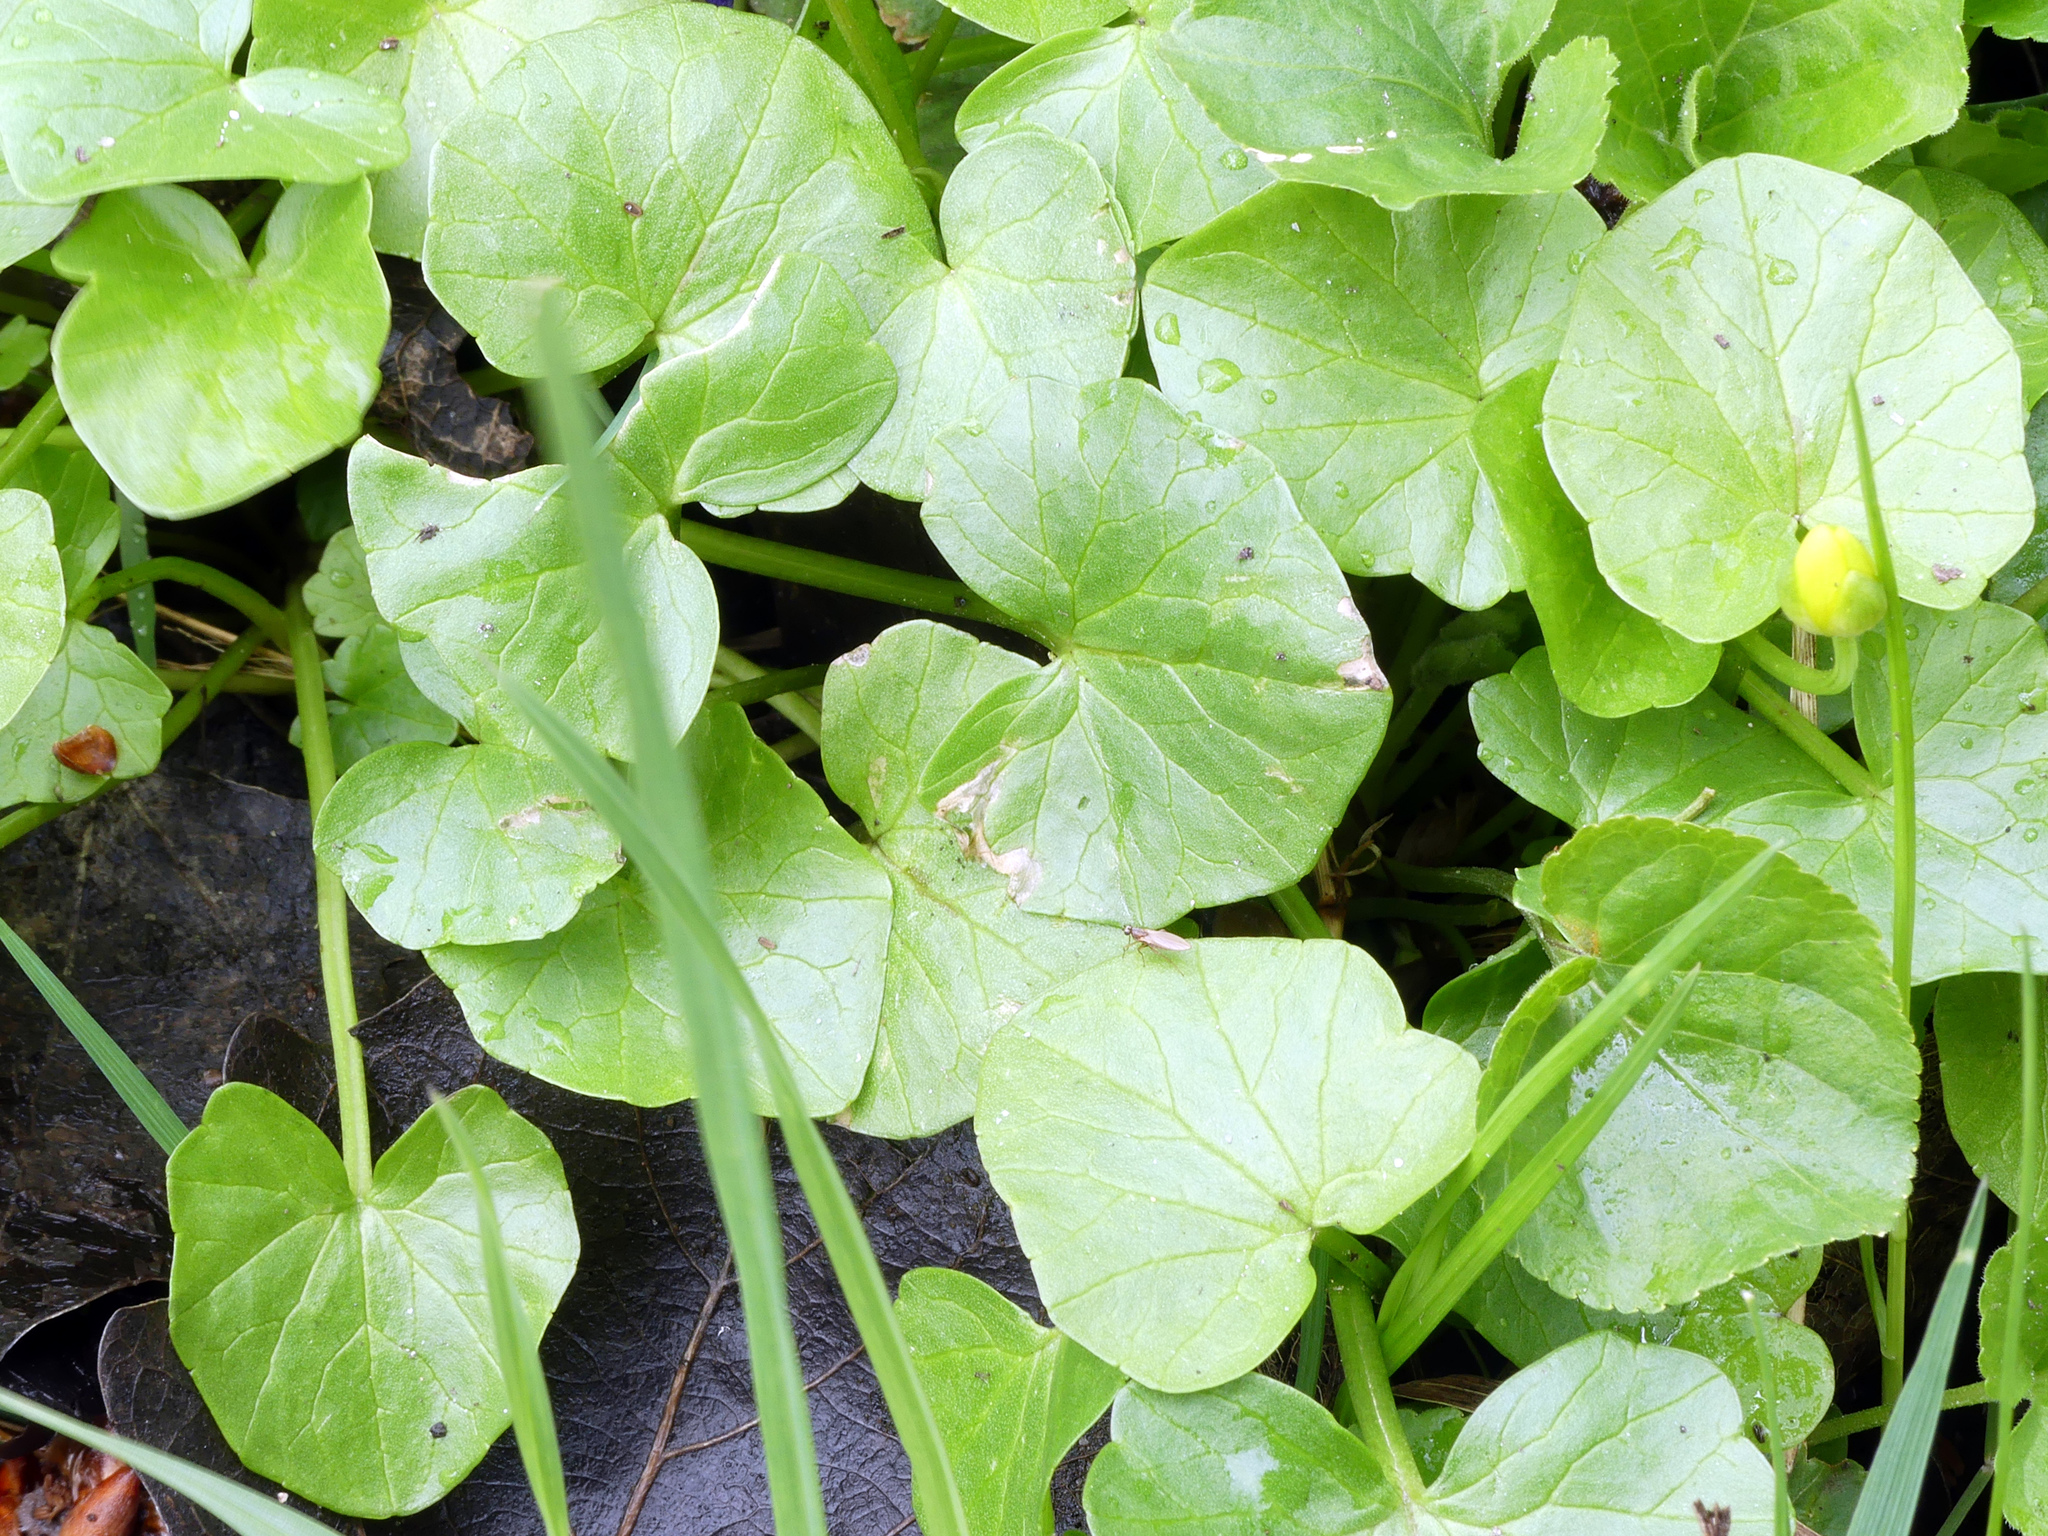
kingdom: Plantae
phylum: Tracheophyta
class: Magnoliopsida
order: Ranunculales
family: Ranunculaceae
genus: Ficaria
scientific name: Ficaria verna
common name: Lesser celandine
